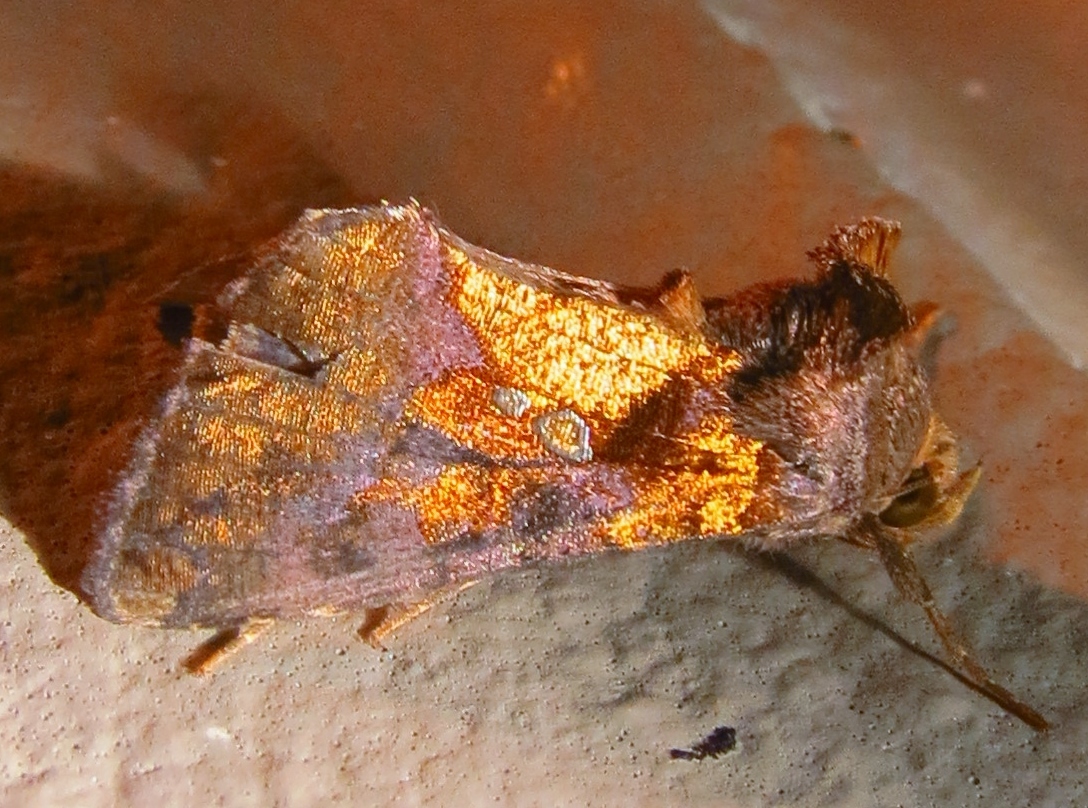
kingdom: Animalia
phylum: Arthropoda
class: Insecta
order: Lepidoptera
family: Noctuidae
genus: Argyrogramma
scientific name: Argyrogramma verruca
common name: Golden looper moth
